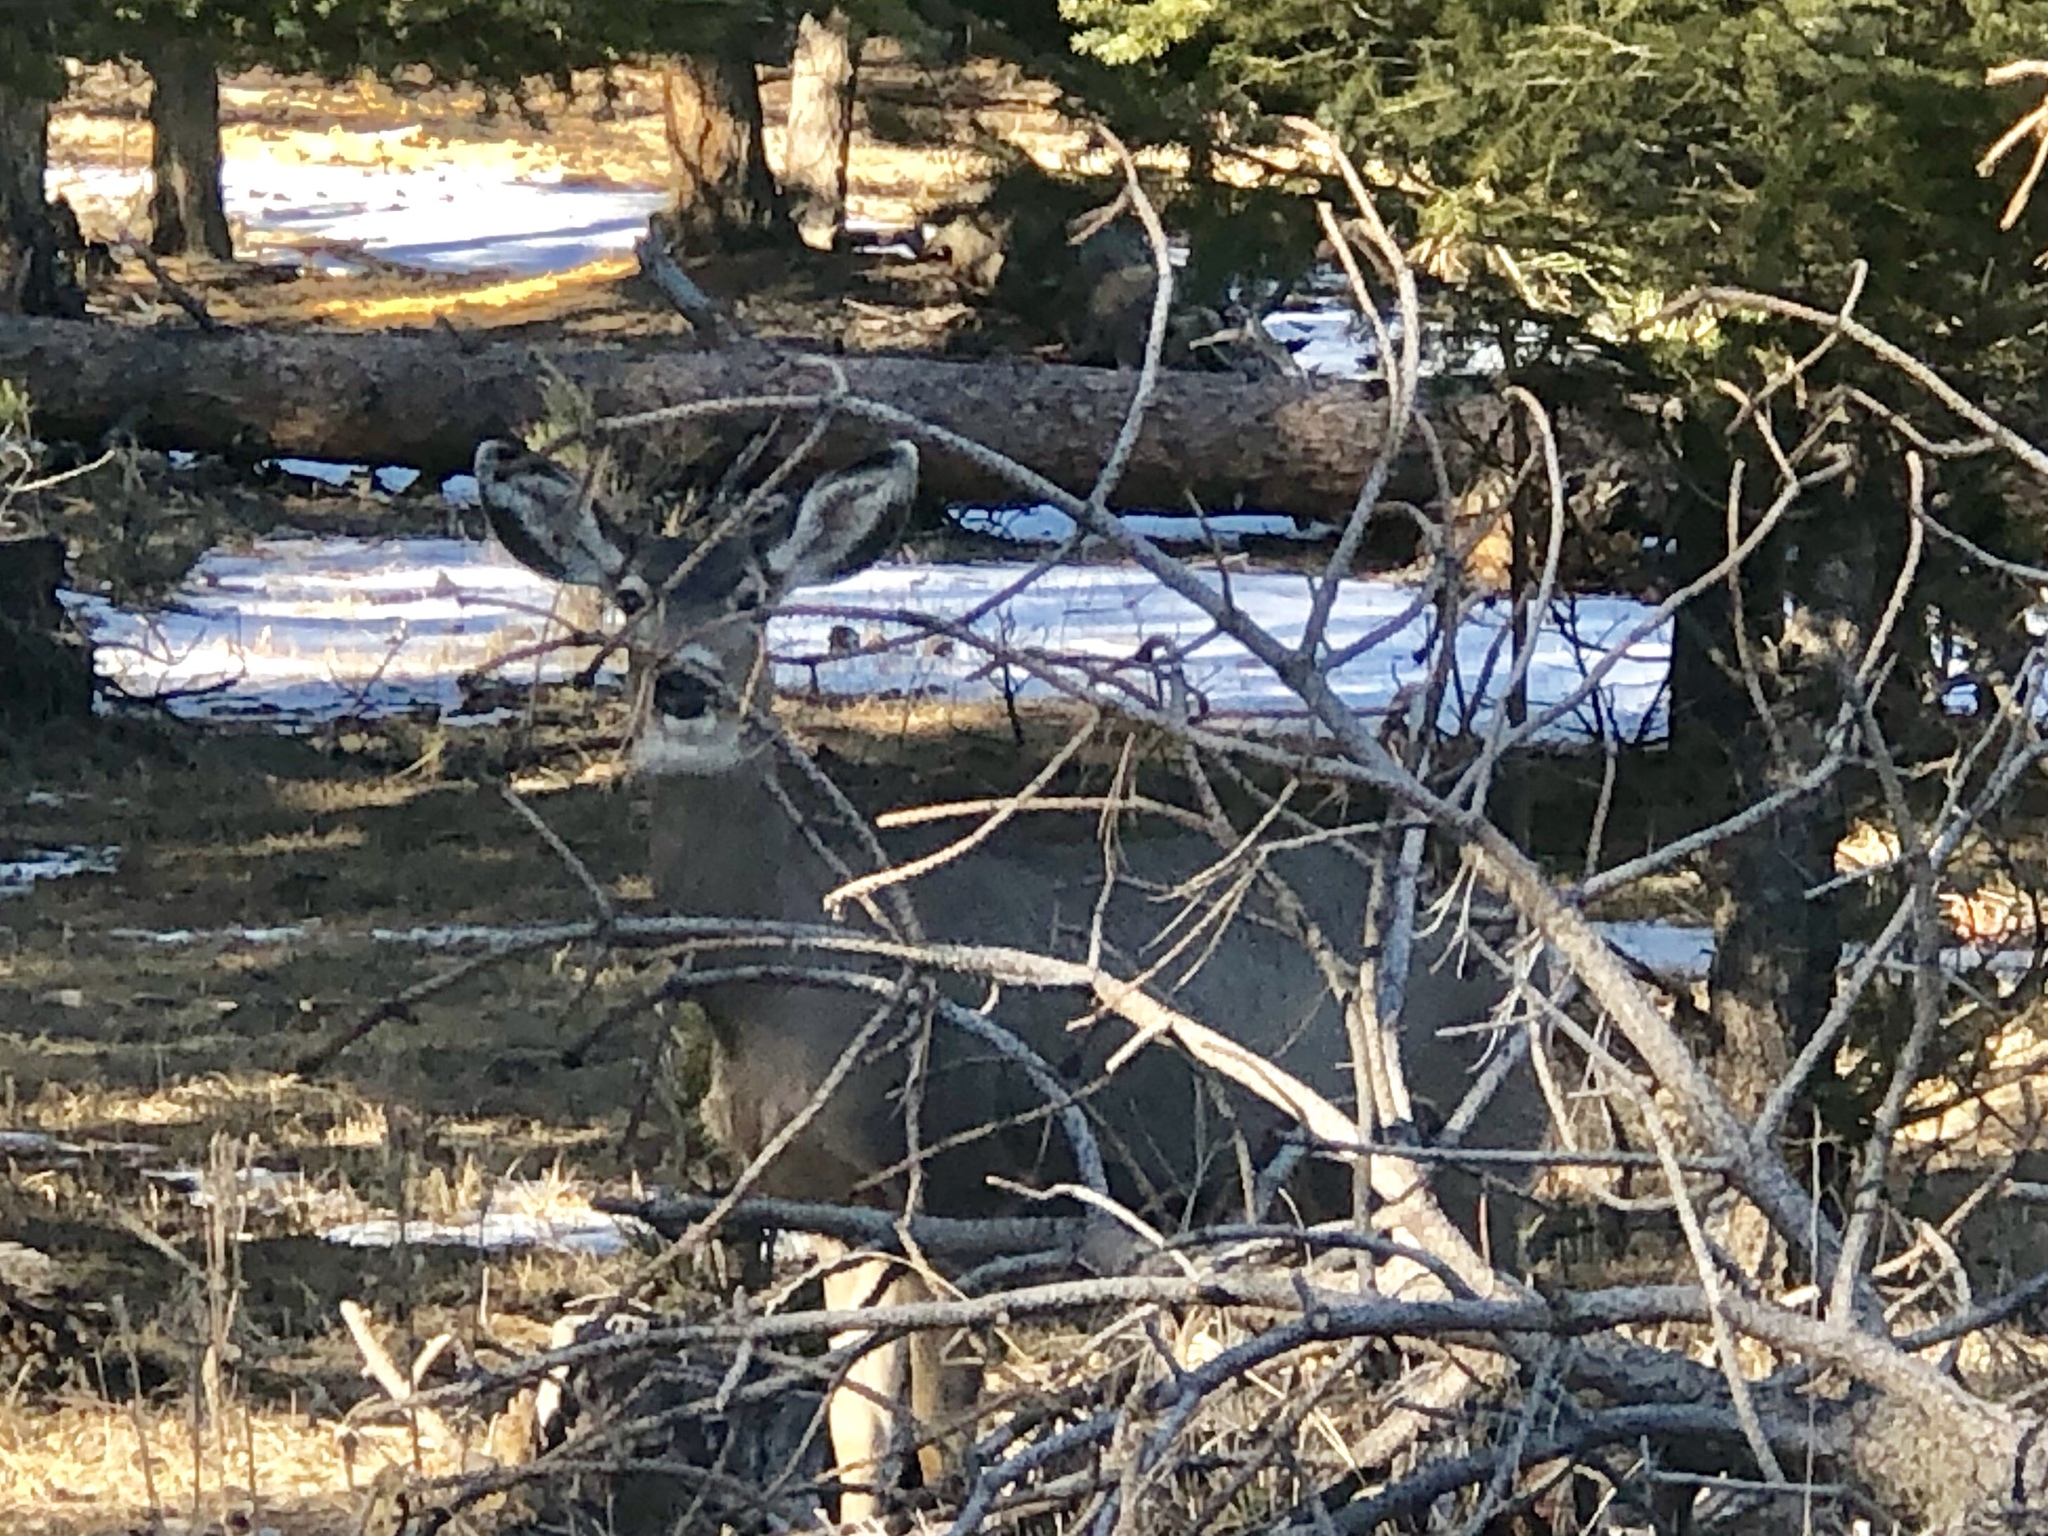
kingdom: Animalia
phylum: Chordata
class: Mammalia
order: Artiodactyla
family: Cervidae
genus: Odocoileus
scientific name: Odocoileus hemionus
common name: Mule deer
